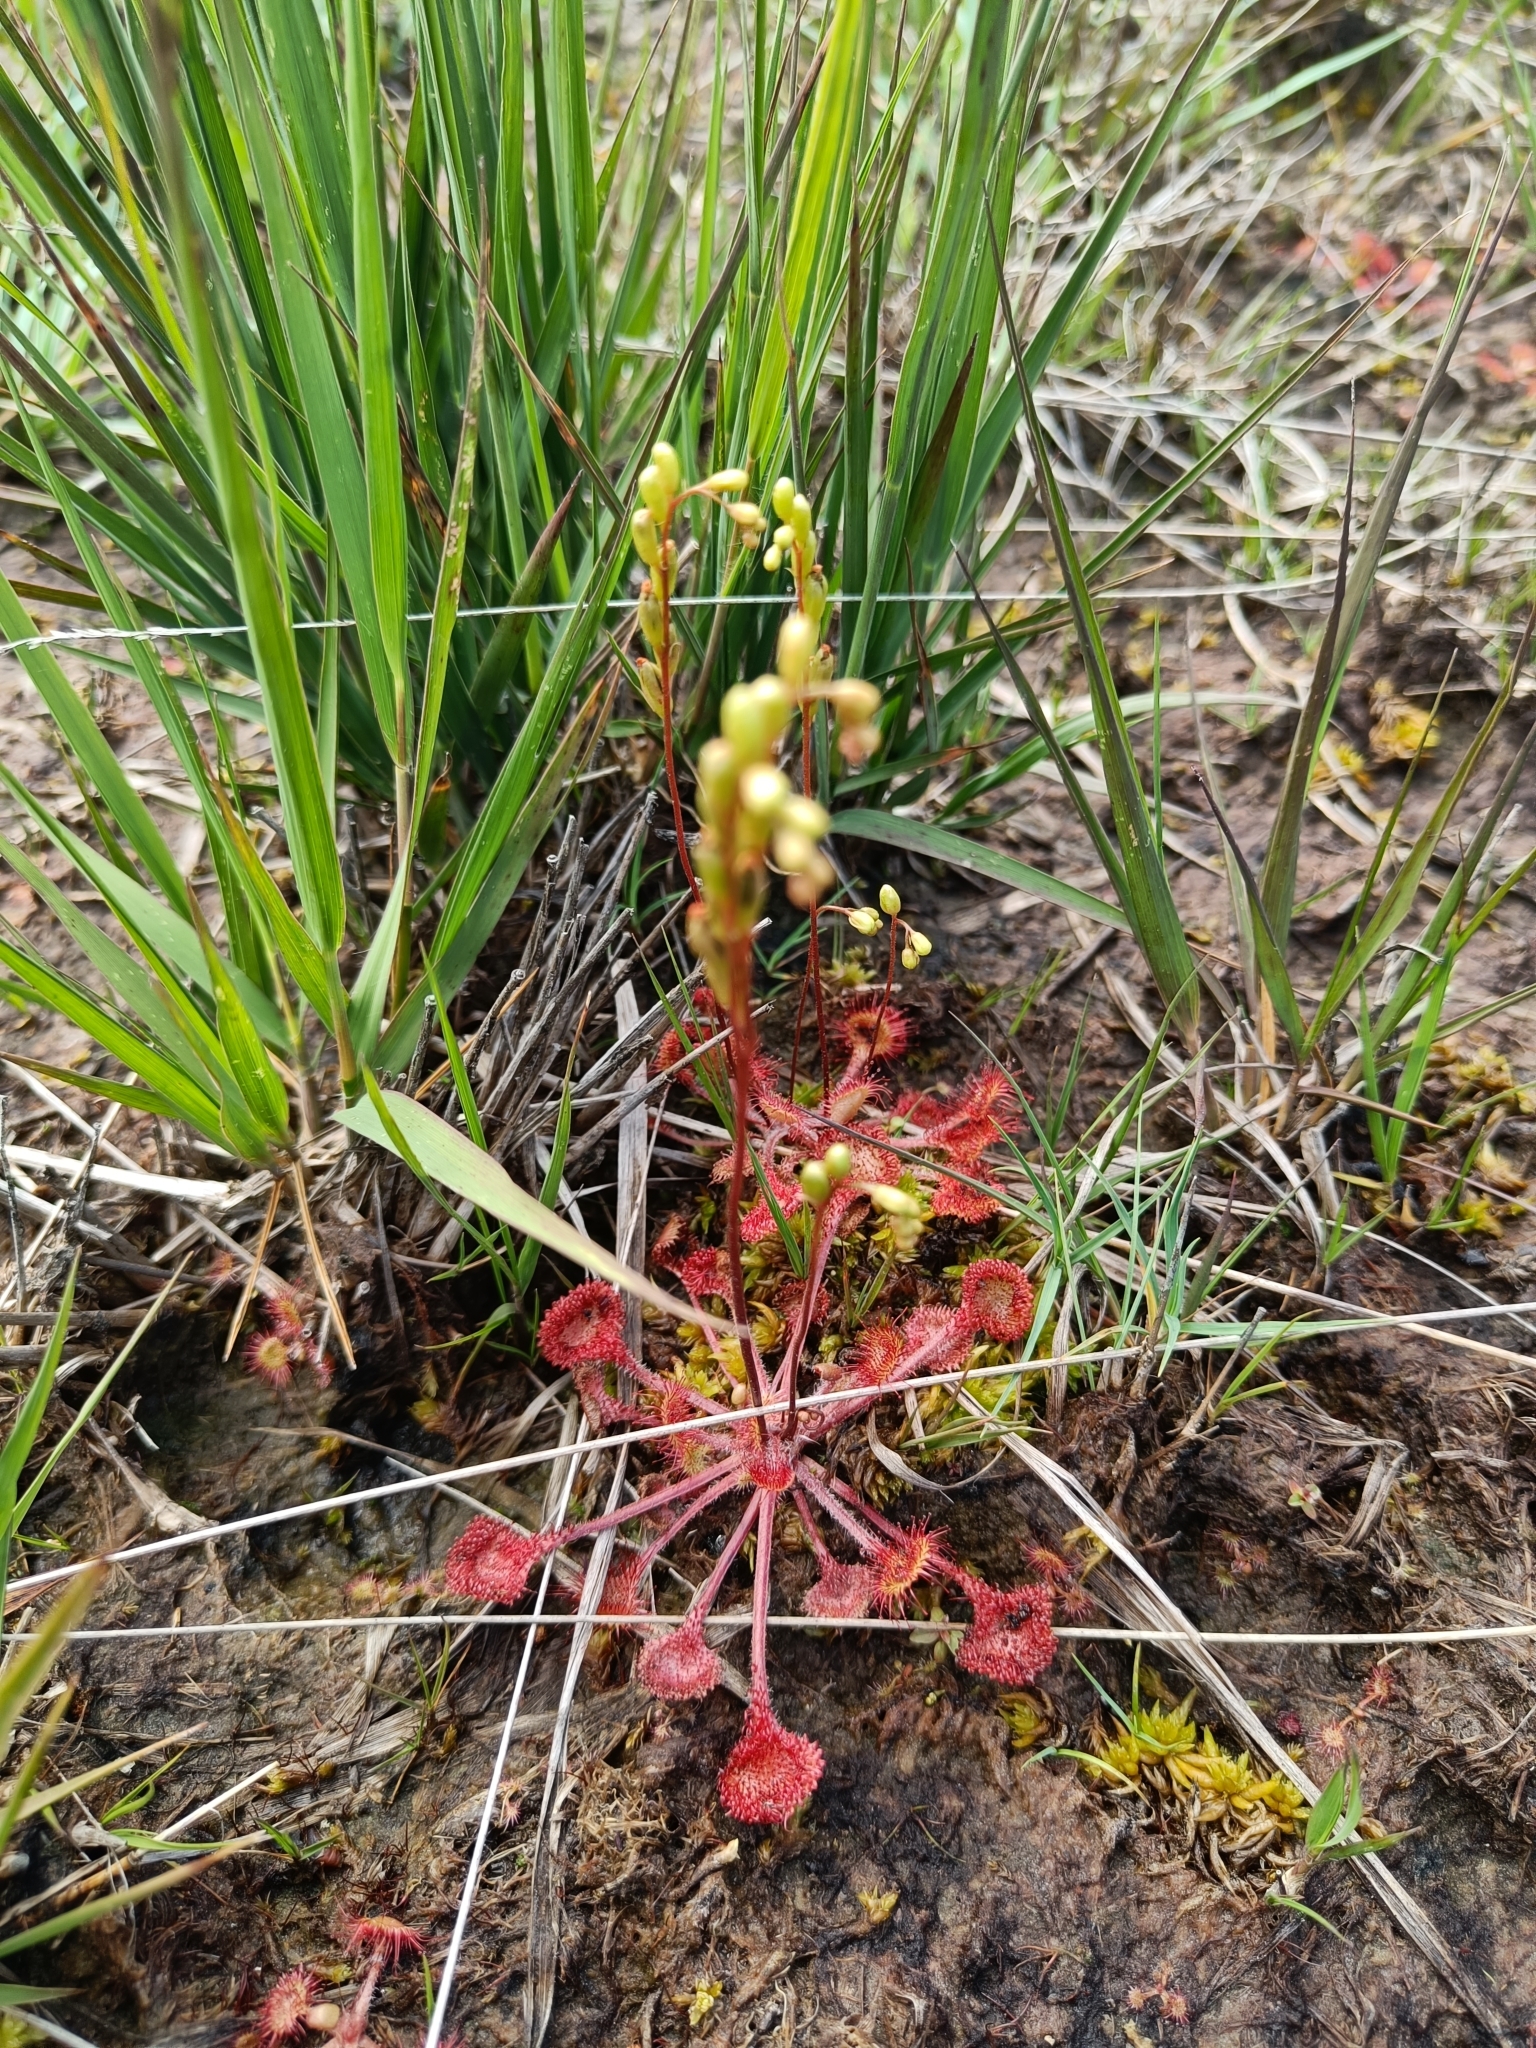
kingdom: Plantae
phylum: Tracheophyta
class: Magnoliopsida
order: Caryophyllales
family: Droseraceae
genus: Drosera
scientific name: Drosera rotundifolia
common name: Round-leaved sundew
